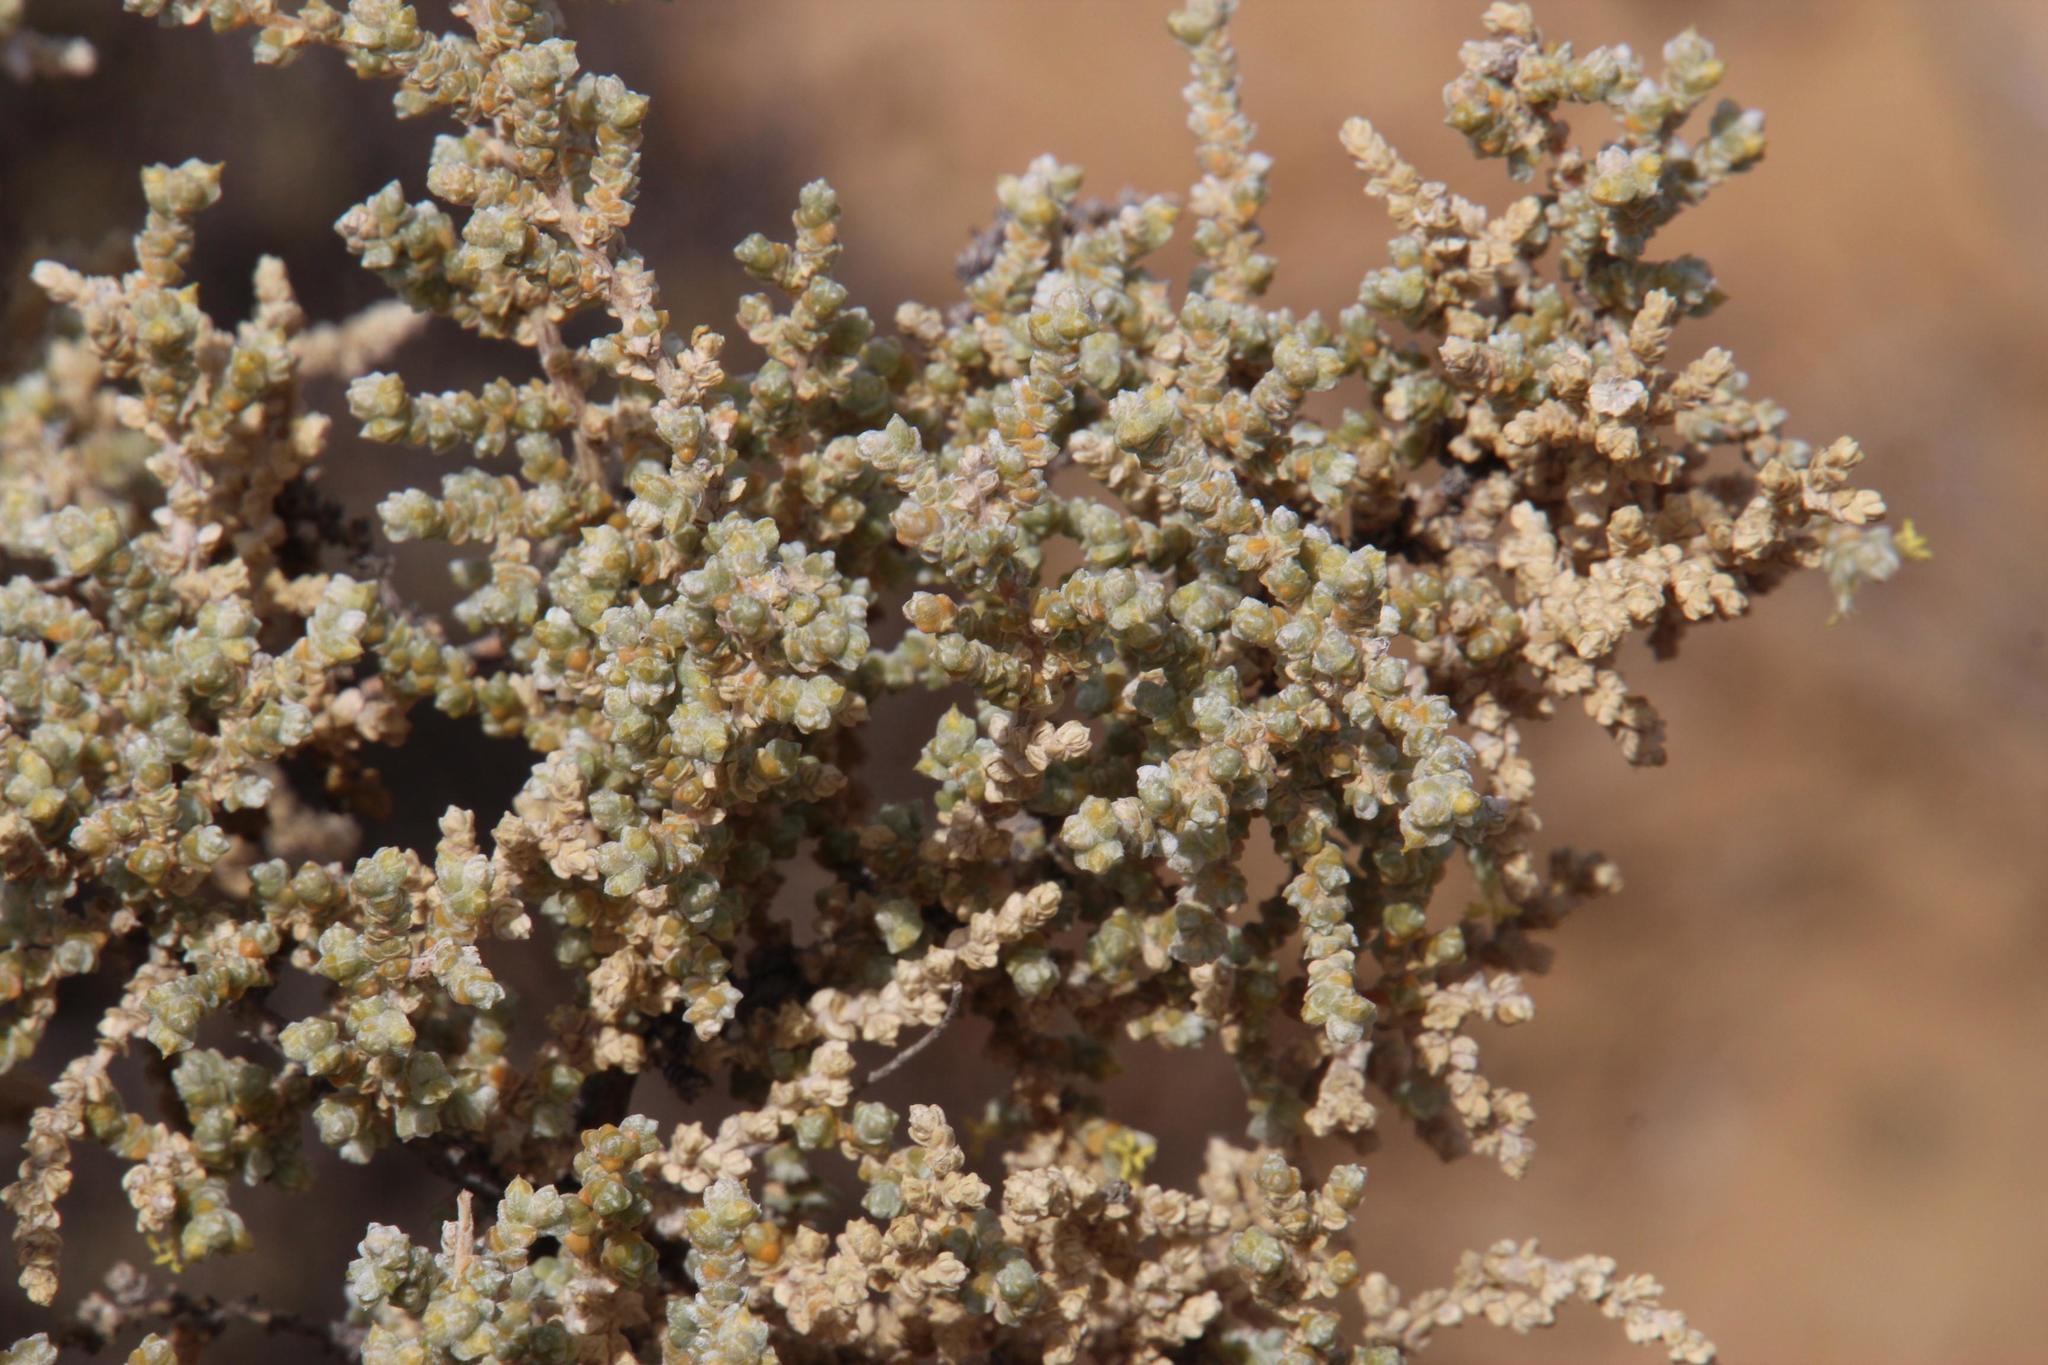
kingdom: Plantae
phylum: Tracheophyta
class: Magnoliopsida
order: Caryophyllales
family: Amaranthaceae
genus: Caroxylon
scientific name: Caroxylon aphyllum
